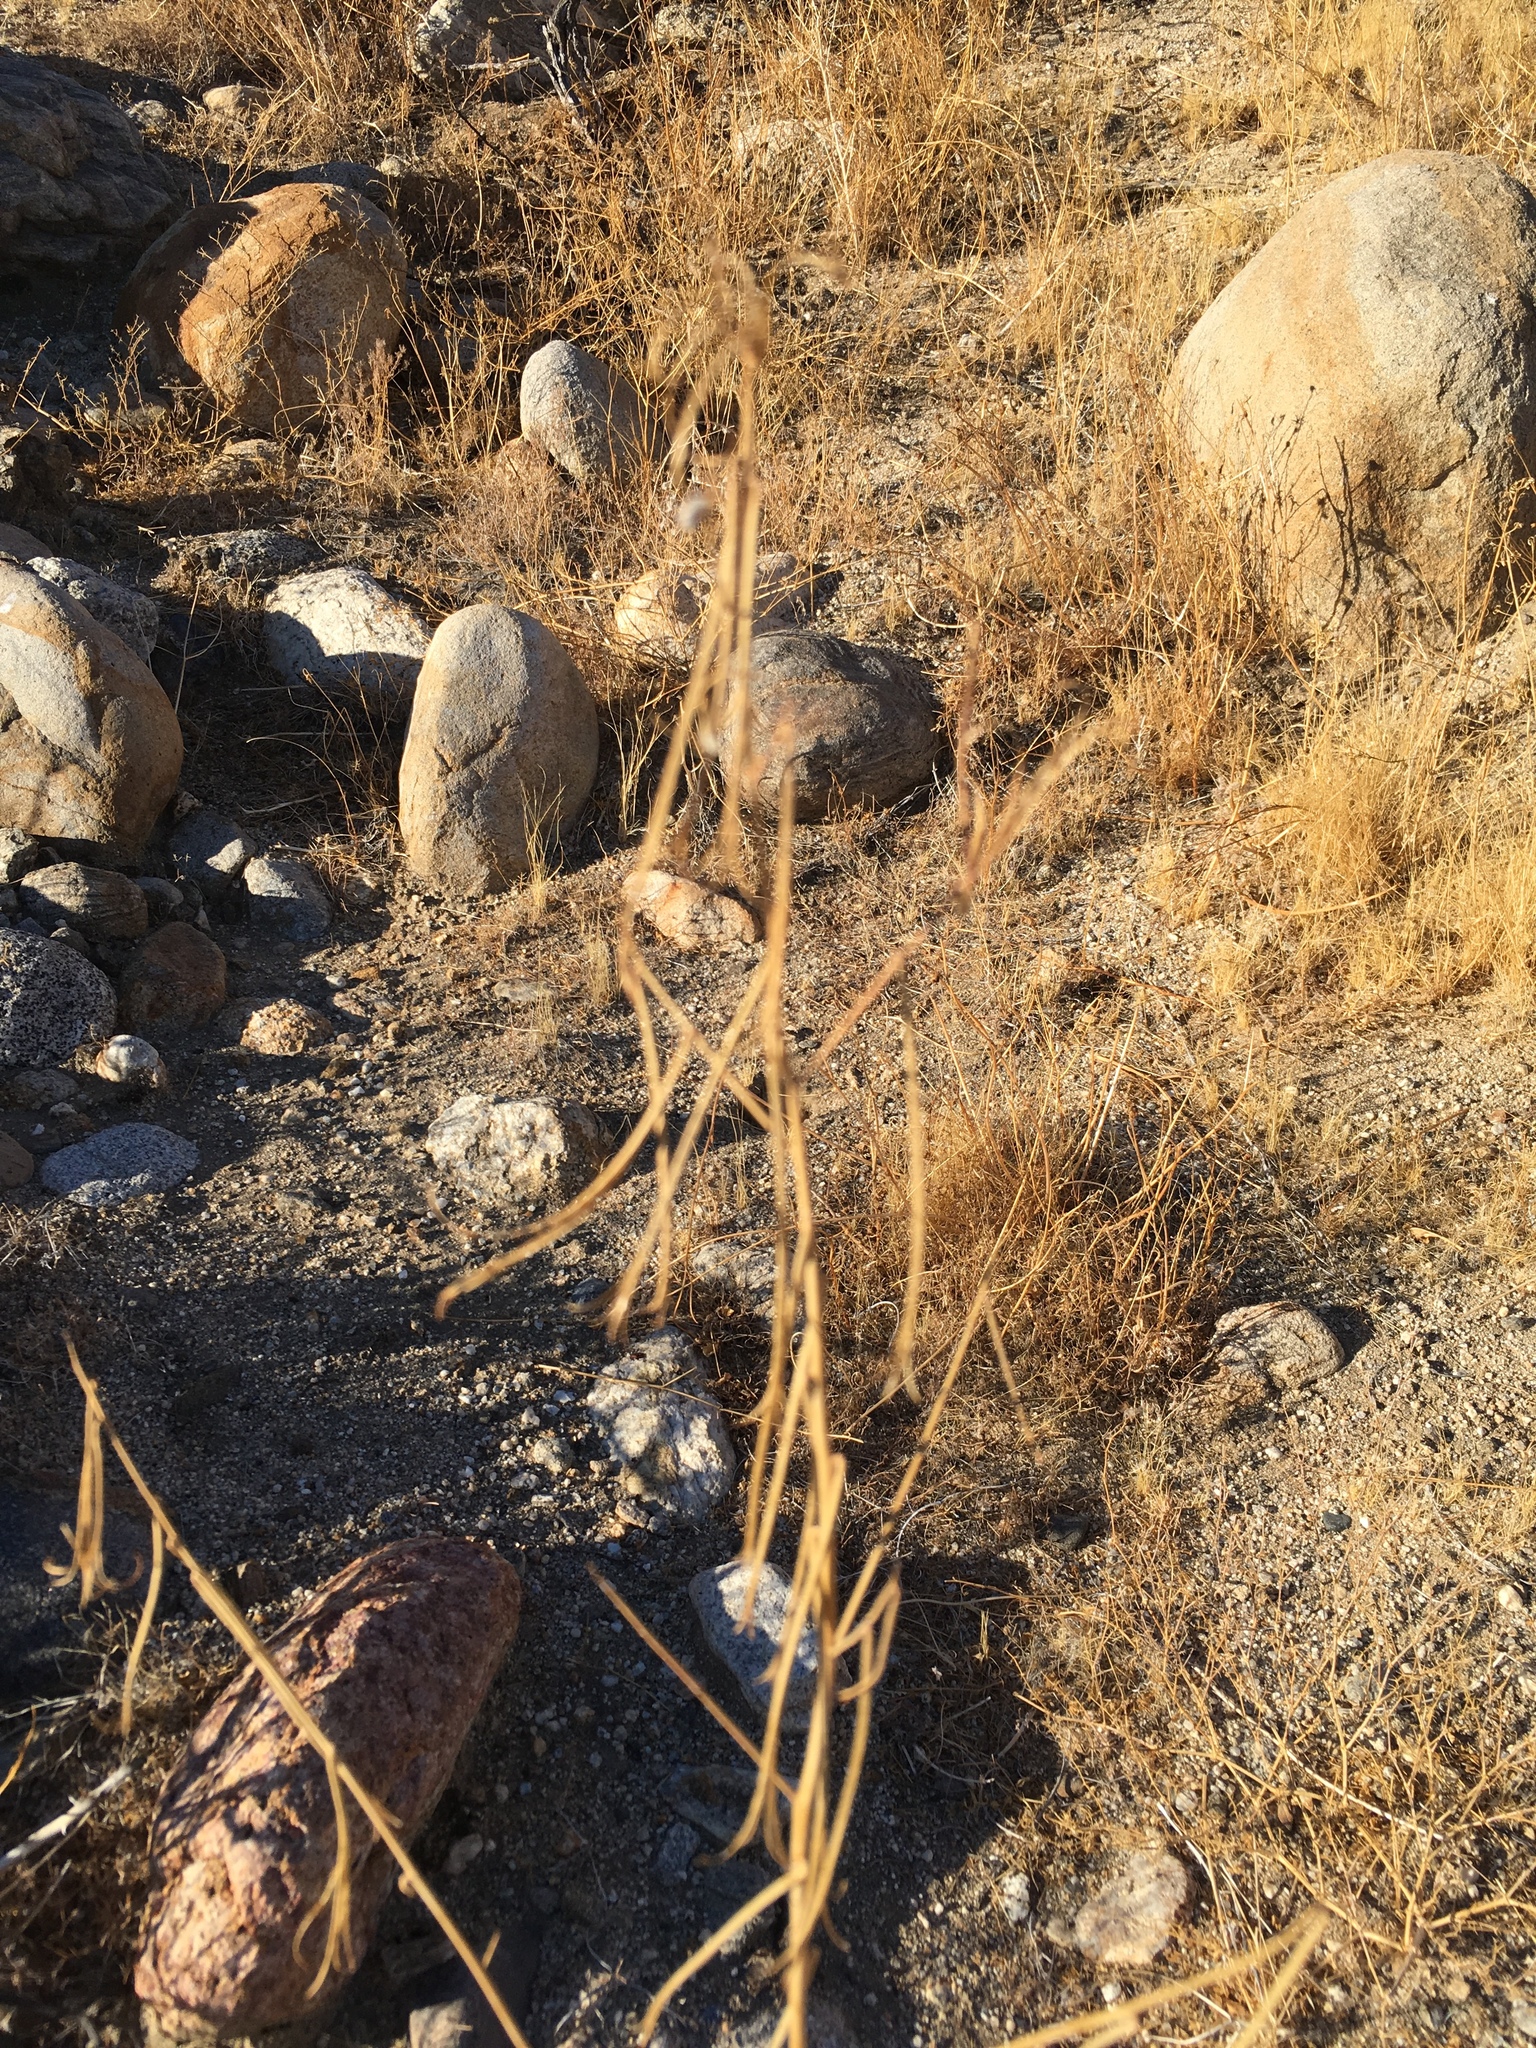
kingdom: Plantae
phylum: Tracheophyta
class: Magnoliopsida
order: Myrtales
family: Onagraceae
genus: Eulobus
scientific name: Eulobus californicus
